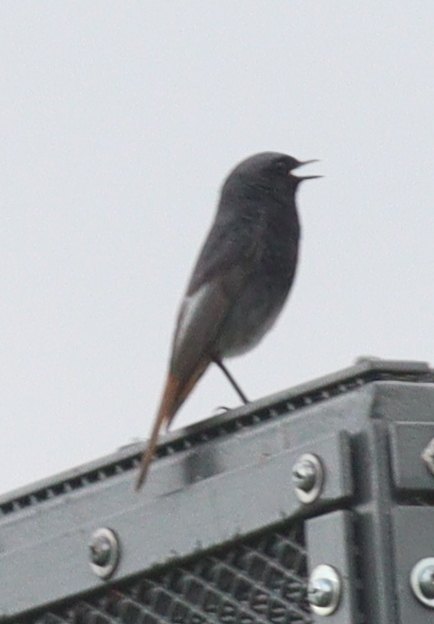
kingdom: Animalia
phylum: Chordata
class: Aves
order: Passeriformes
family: Muscicapidae
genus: Phoenicurus
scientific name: Phoenicurus ochruros
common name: Black redstart
